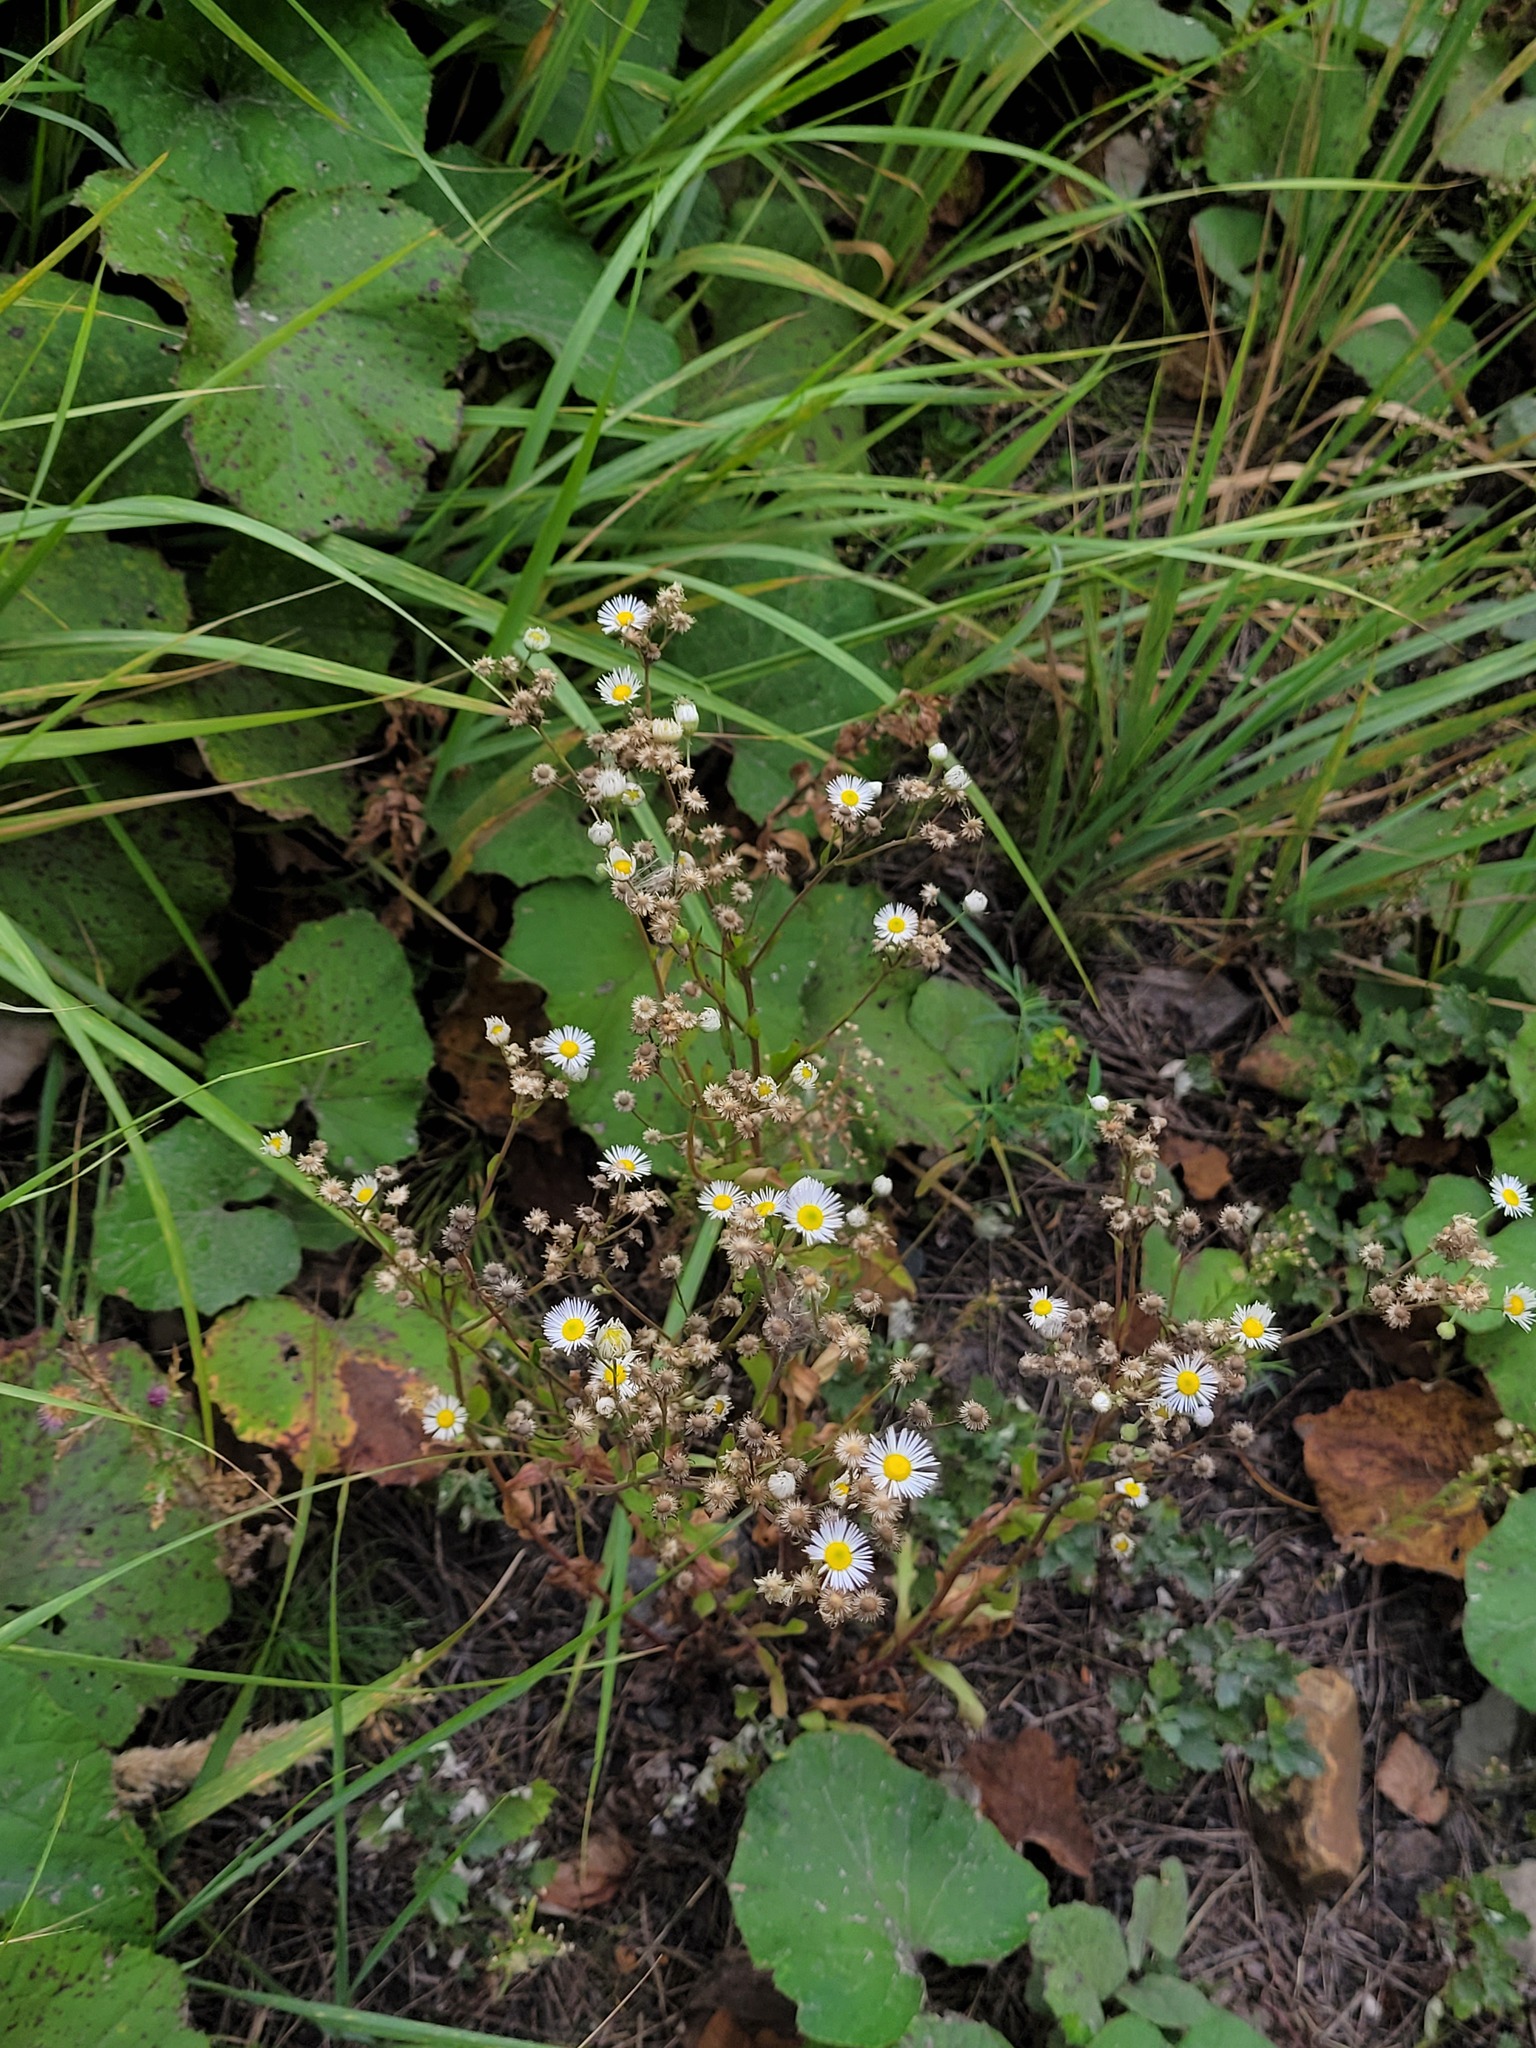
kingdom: Plantae
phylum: Tracheophyta
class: Magnoliopsida
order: Asterales
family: Asteraceae
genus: Erigeron
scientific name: Erigeron annuus
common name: Tall fleabane
